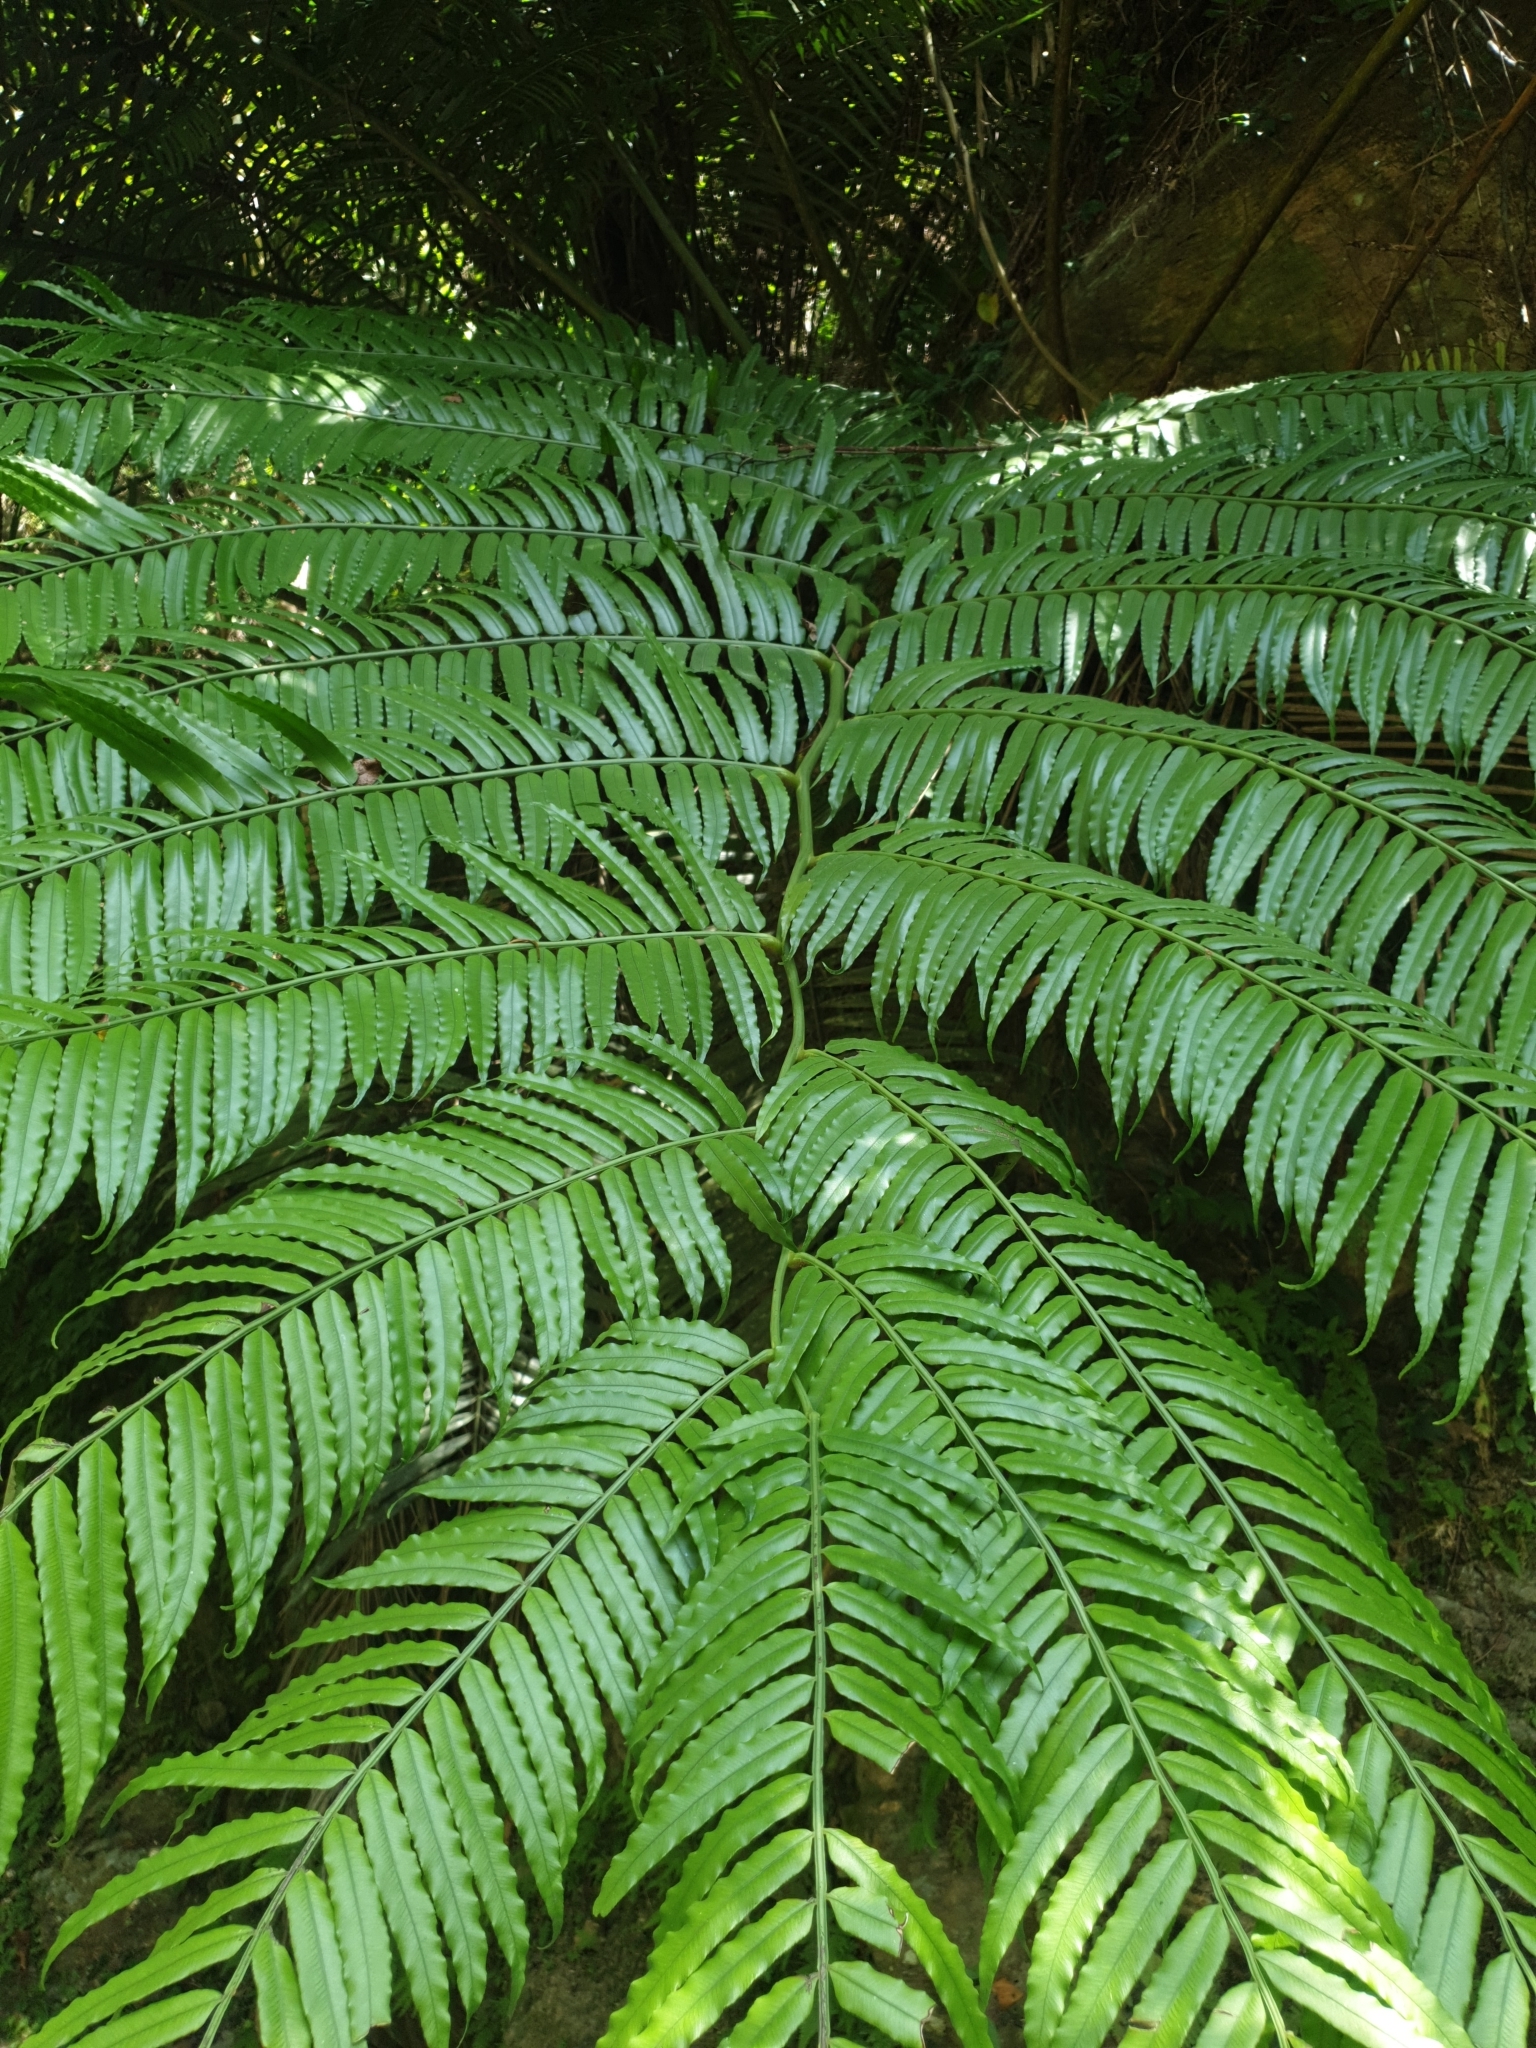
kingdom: Plantae
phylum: Tracheophyta
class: Polypodiopsida
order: Marattiales
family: Marattiaceae
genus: Angiopteris
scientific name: Angiopteris lygodiifolia
